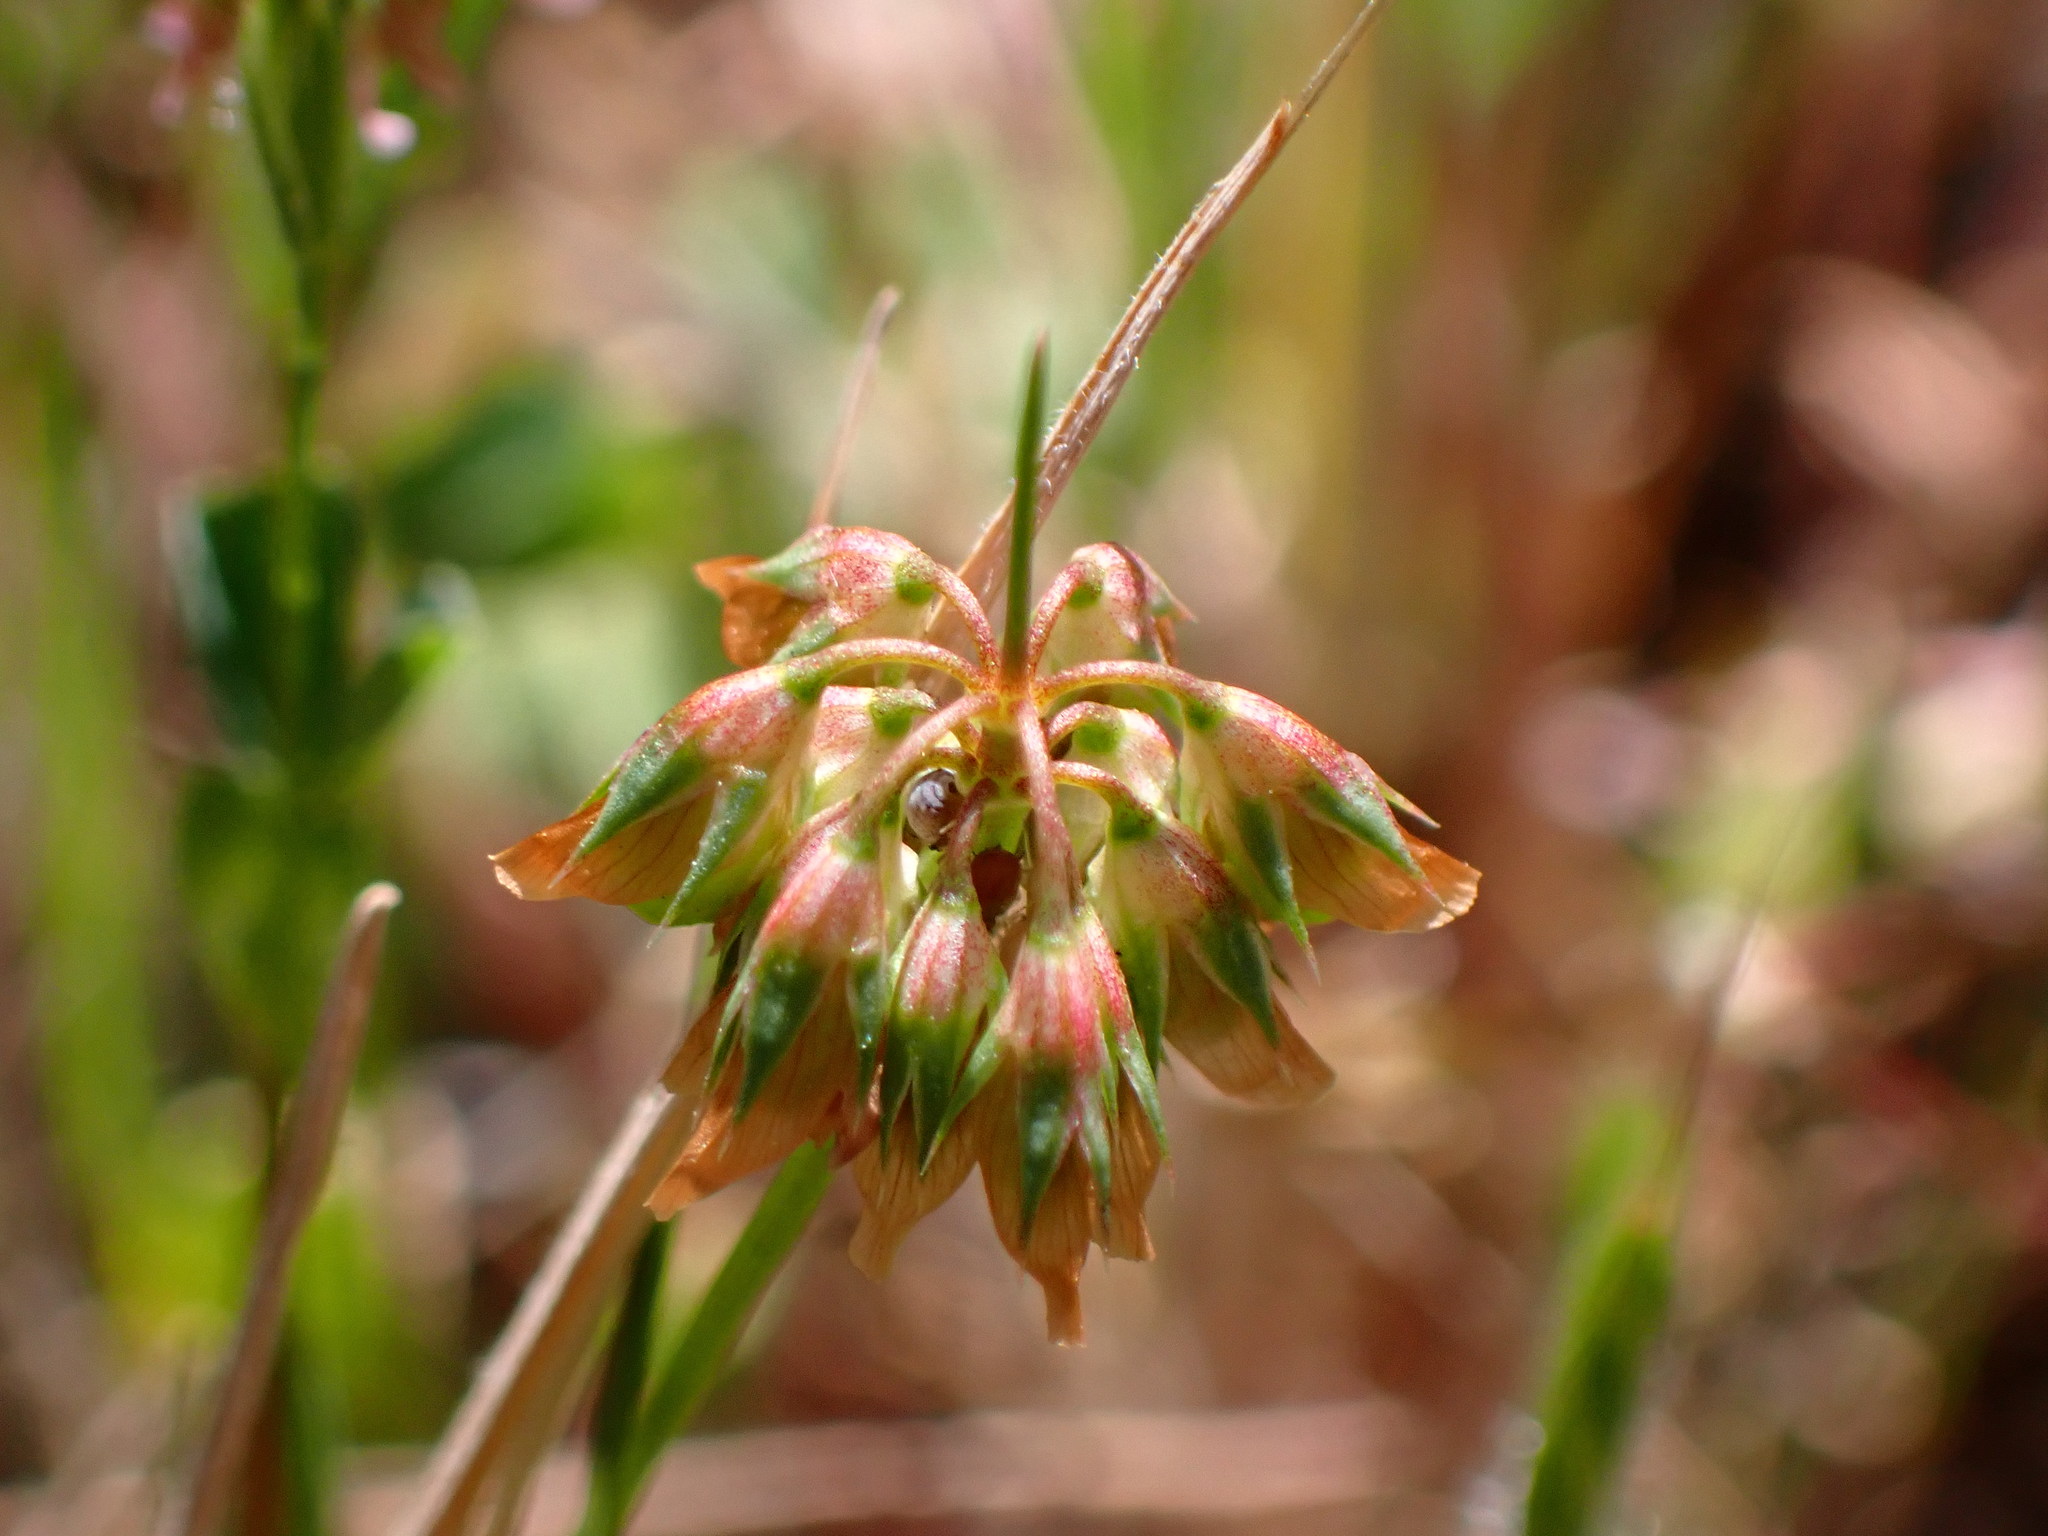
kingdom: Plantae
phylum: Tracheophyta
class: Magnoliopsida
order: Fabales
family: Fabaceae
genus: Trifolium
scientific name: Trifolium gracilentum
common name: Slender clover
